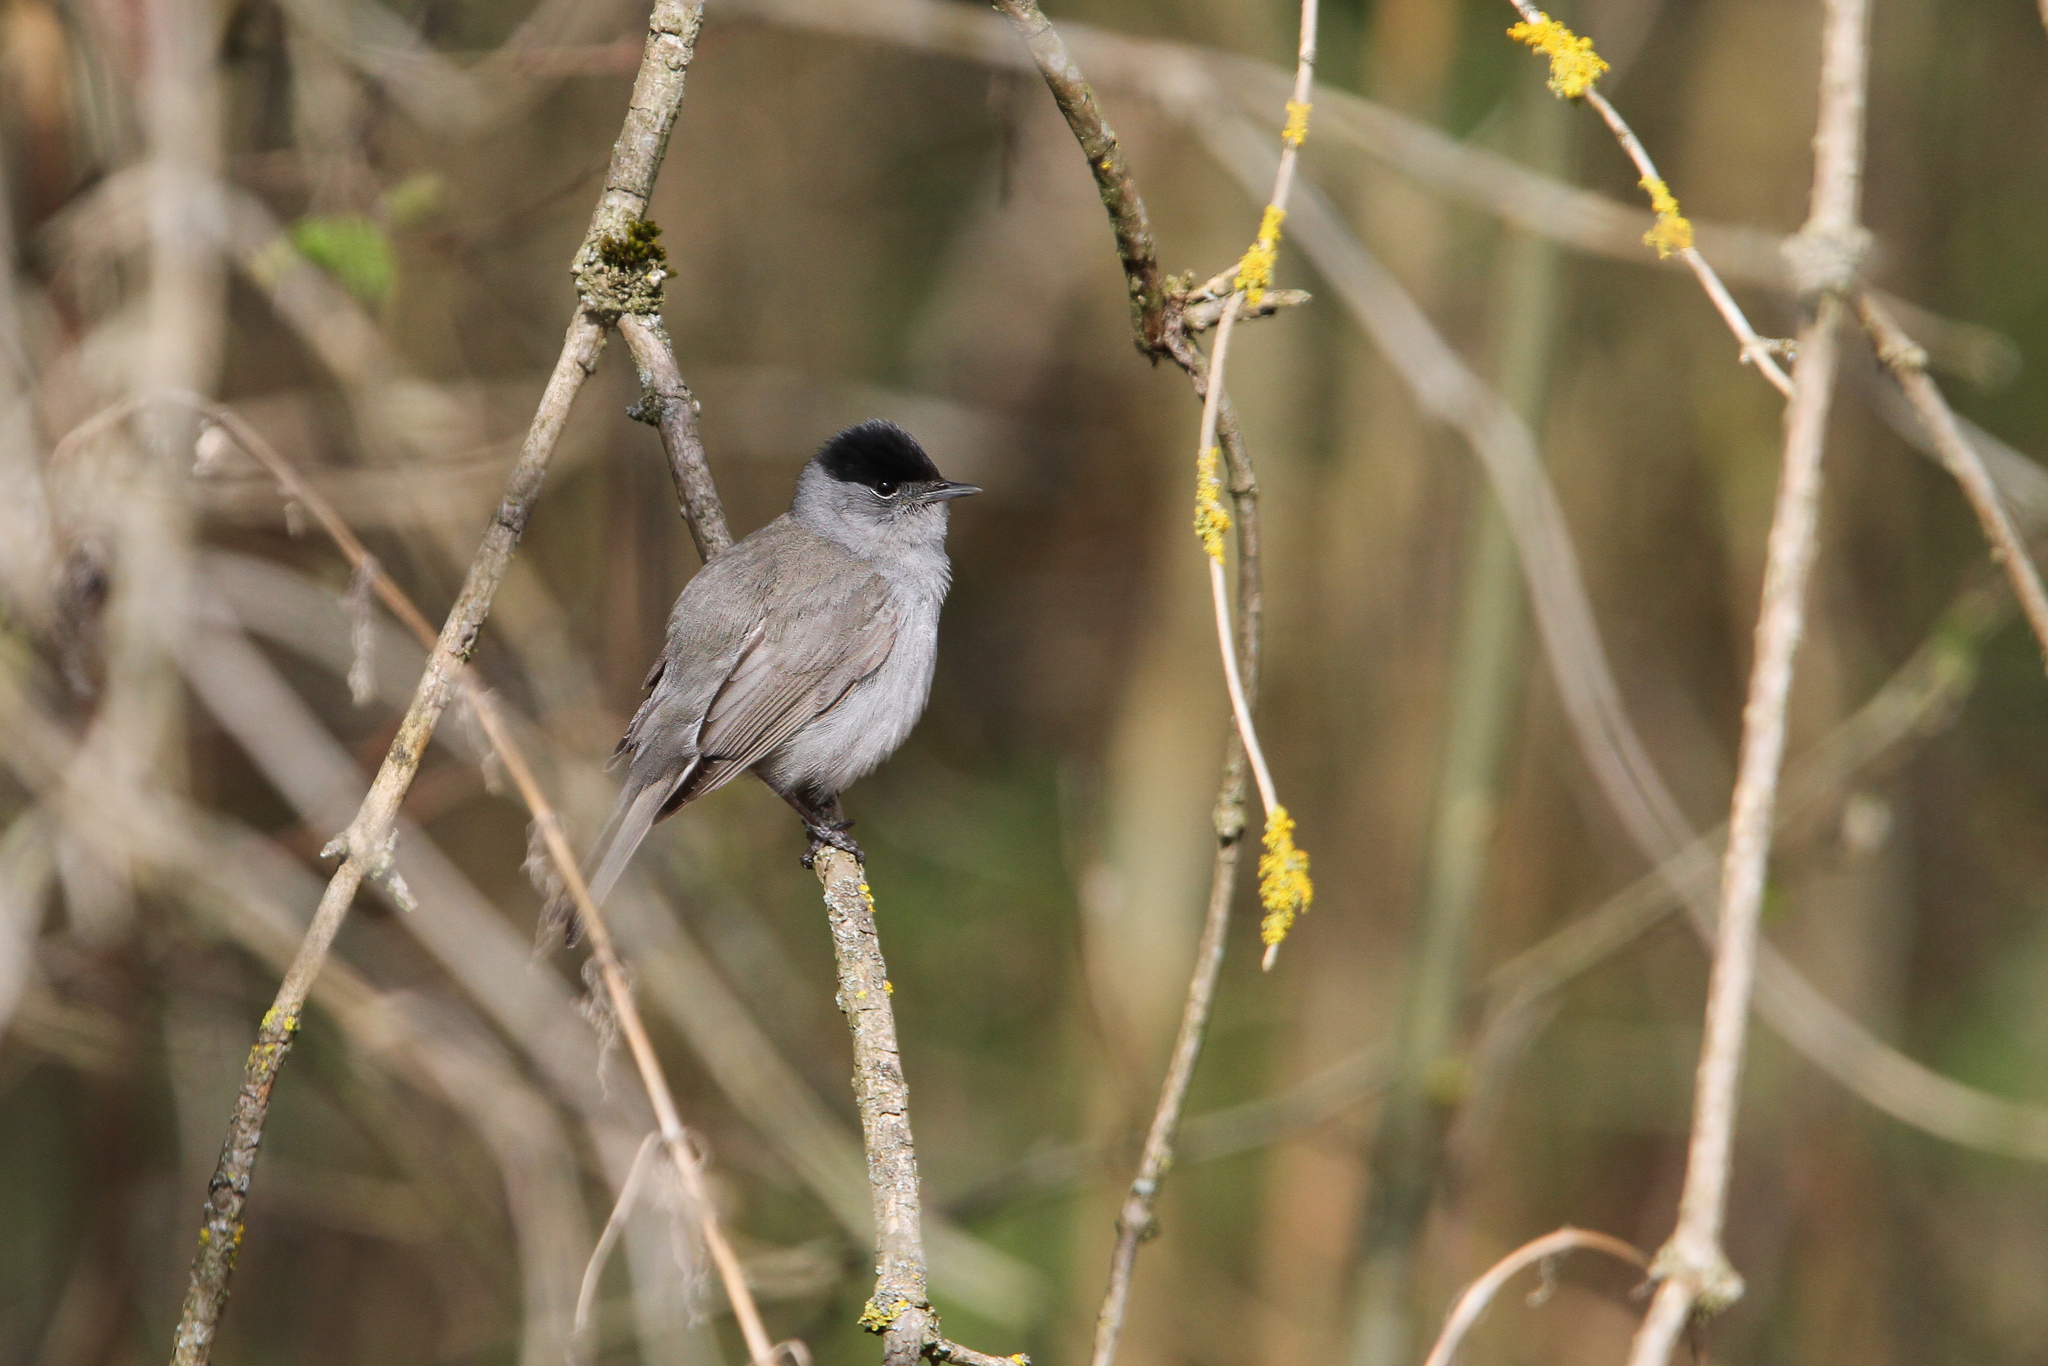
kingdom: Animalia
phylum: Chordata
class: Aves
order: Passeriformes
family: Sylviidae
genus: Sylvia
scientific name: Sylvia atricapilla
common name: Eurasian blackcap
